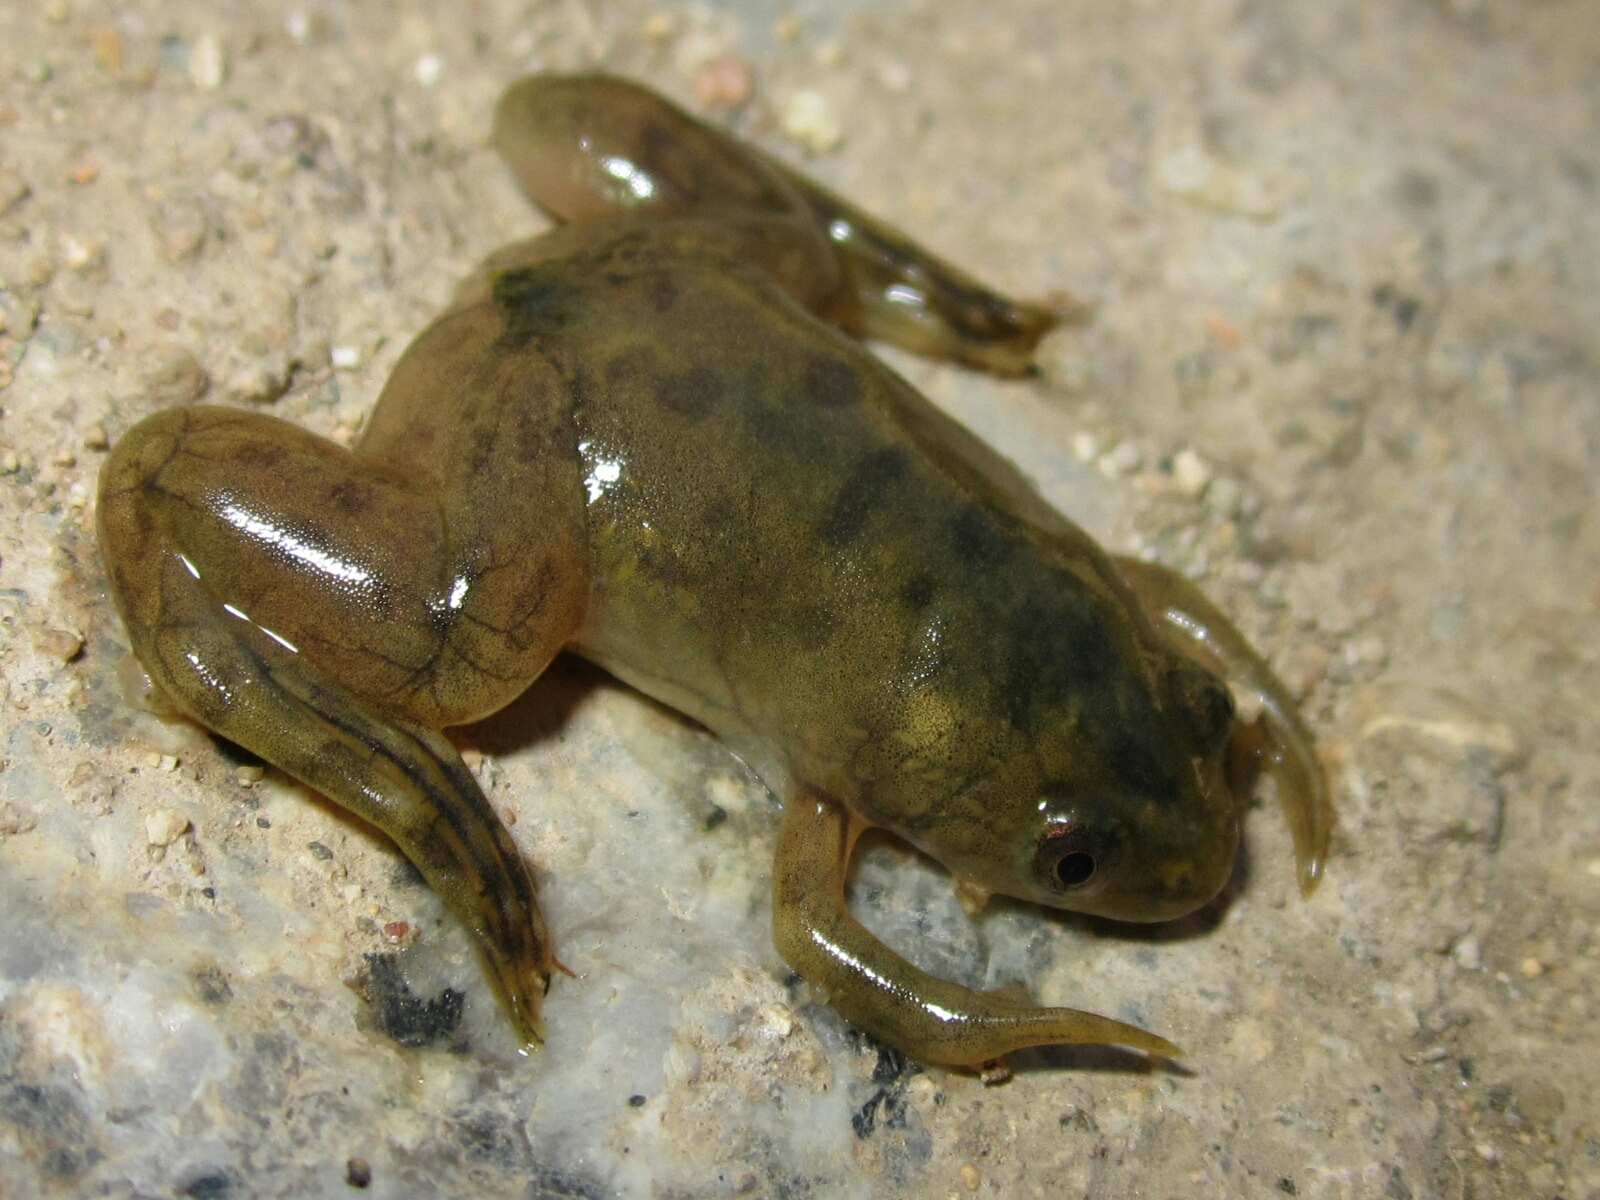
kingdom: Animalia
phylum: Chordata
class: Amphibia
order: Anura
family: Pipidae
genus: Xenopus
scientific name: Xenopus laevis
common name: African clawed frog
